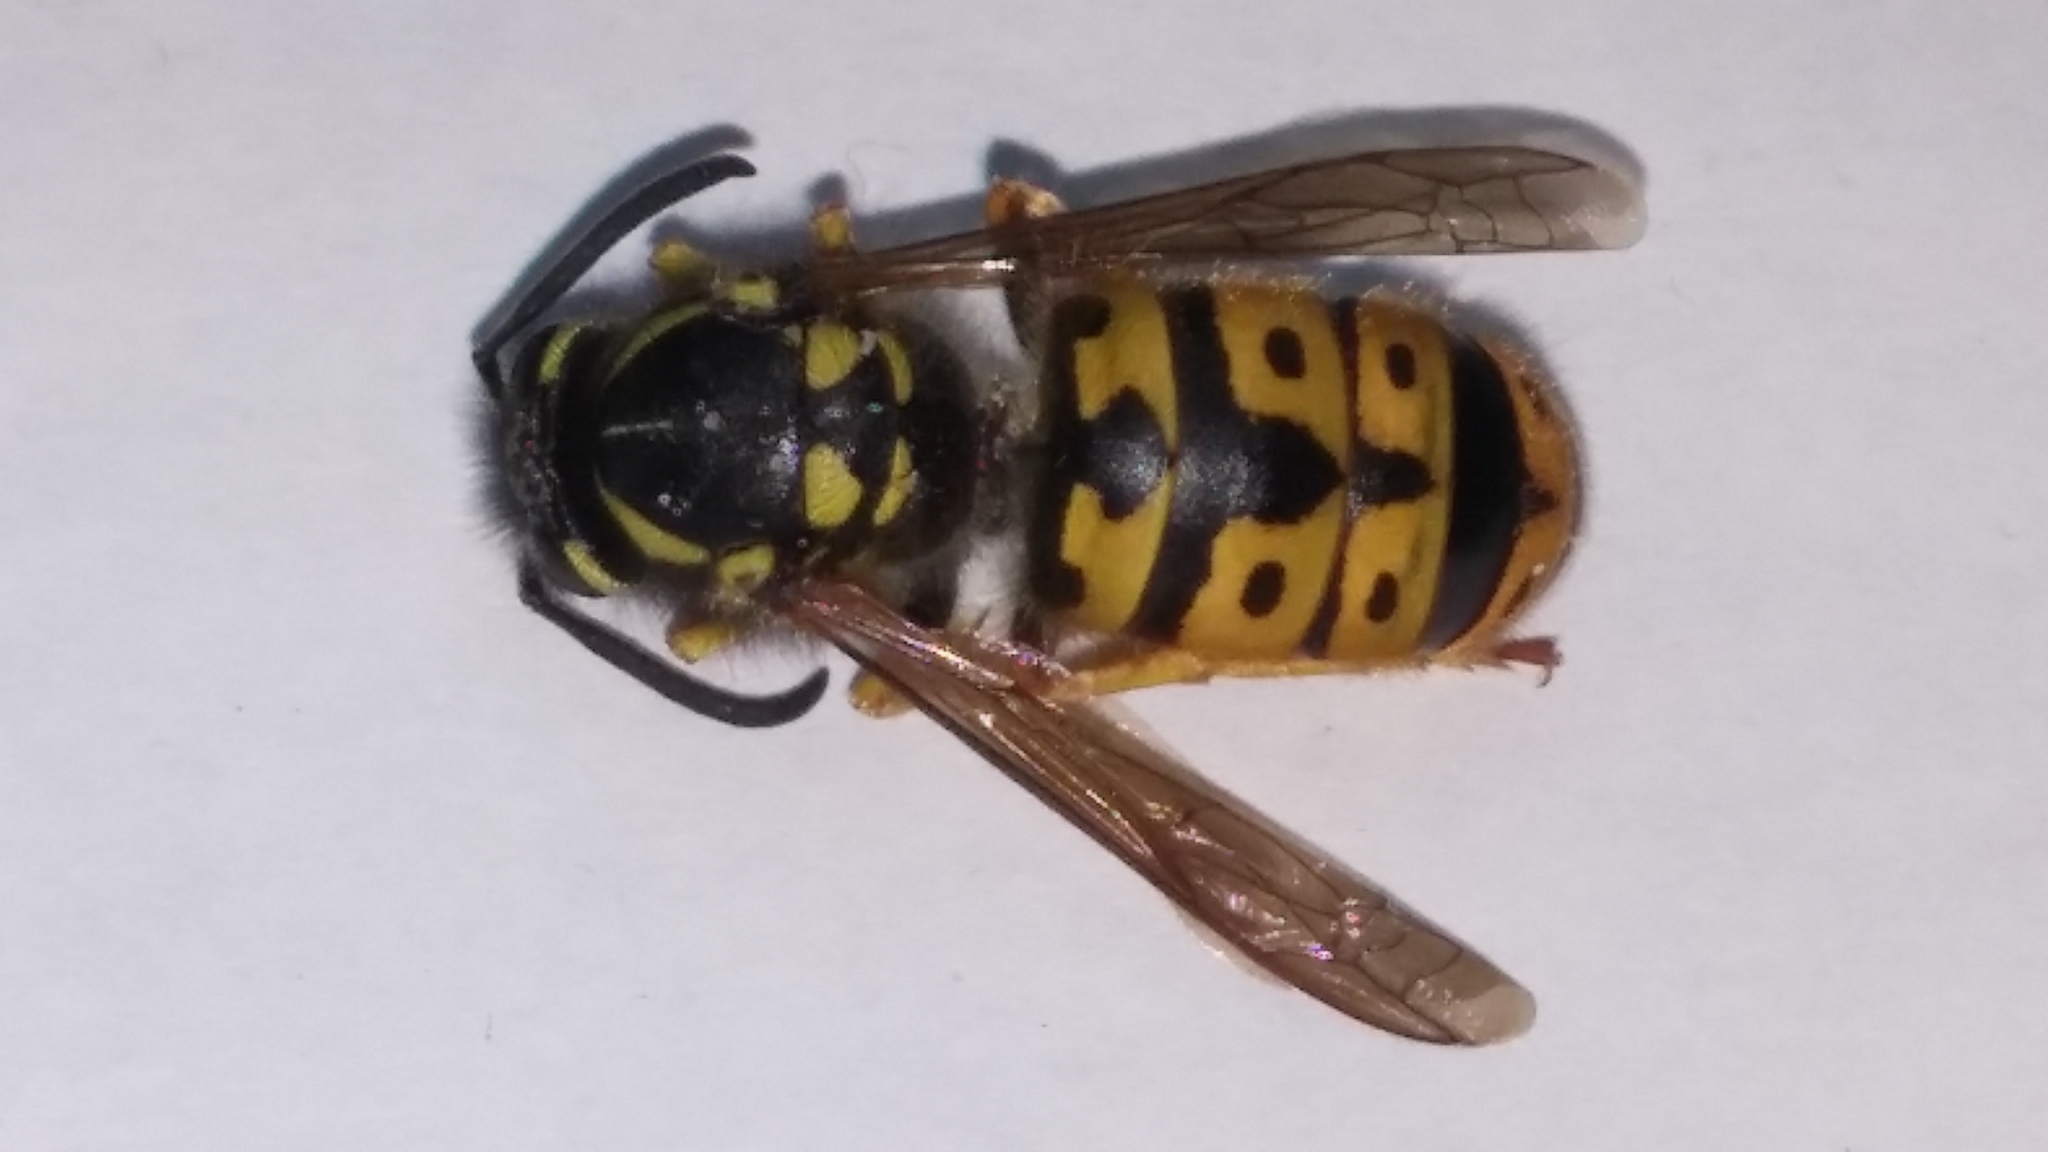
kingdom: Animalia
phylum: Arthropoda
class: Insecta
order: Hymenoptera
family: Vespidae
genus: Vespula
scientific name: Vespula germanica
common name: German wasp
